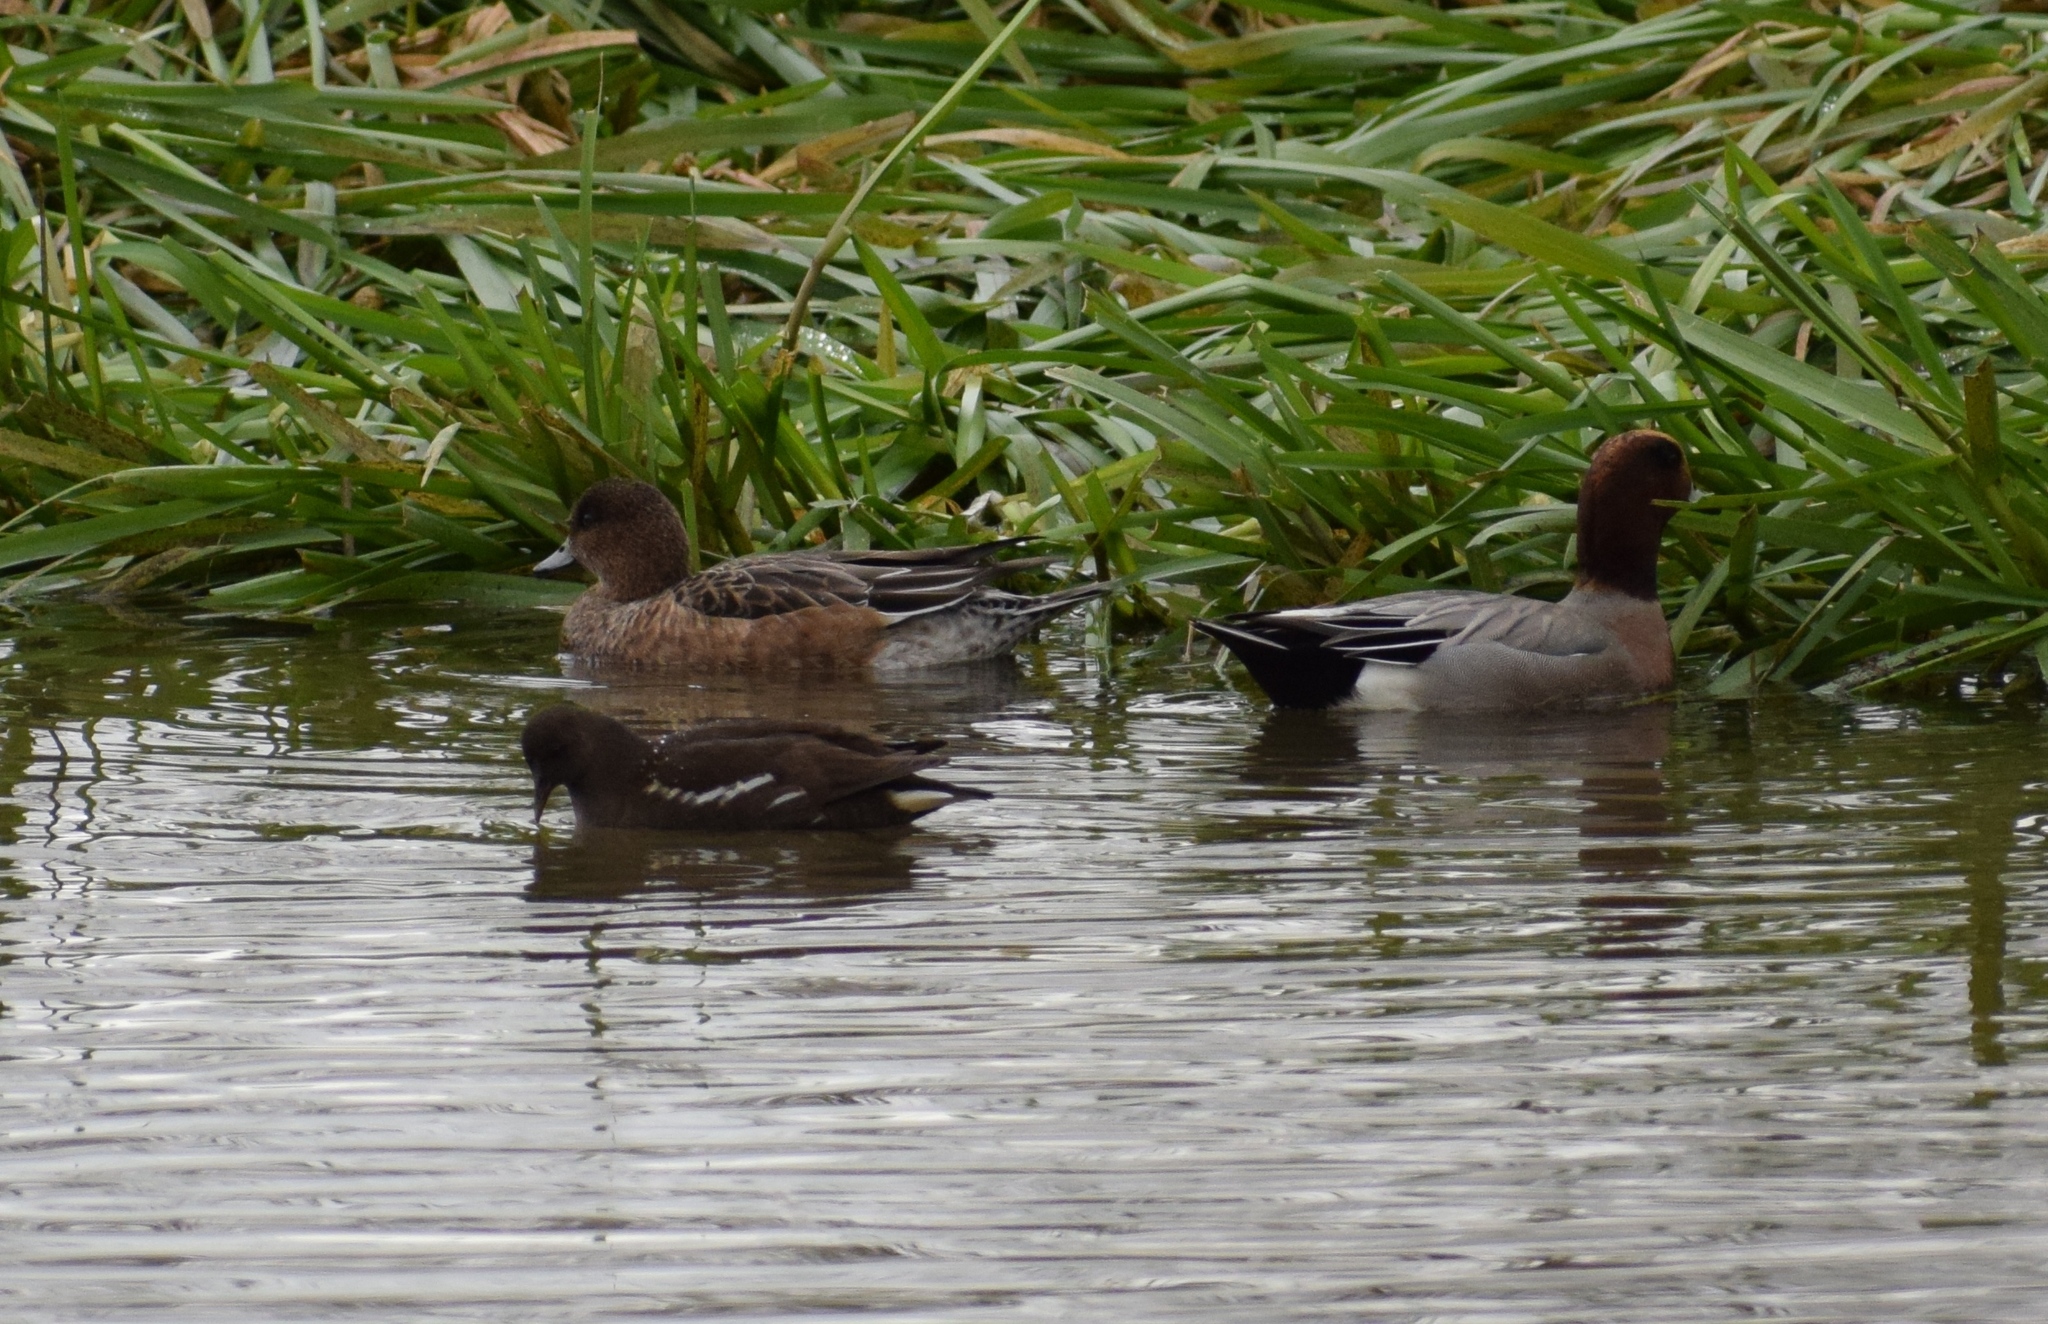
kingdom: Animalia
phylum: Chordata
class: Aves
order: Anseriformes
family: Anatidae
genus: Mareca
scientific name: Mareca penelope
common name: Eurasian wigeon
